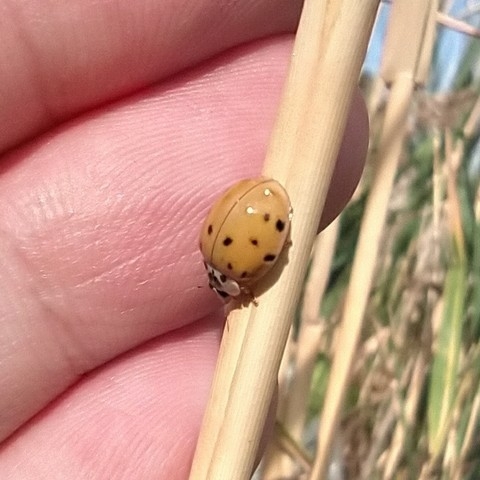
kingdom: Animalia
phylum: Arthropoda
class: Insecta
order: Coleoptera
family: Coccinellidae
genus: Harmonia
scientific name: Harmonia axyridis
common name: Harlequin ladybird
